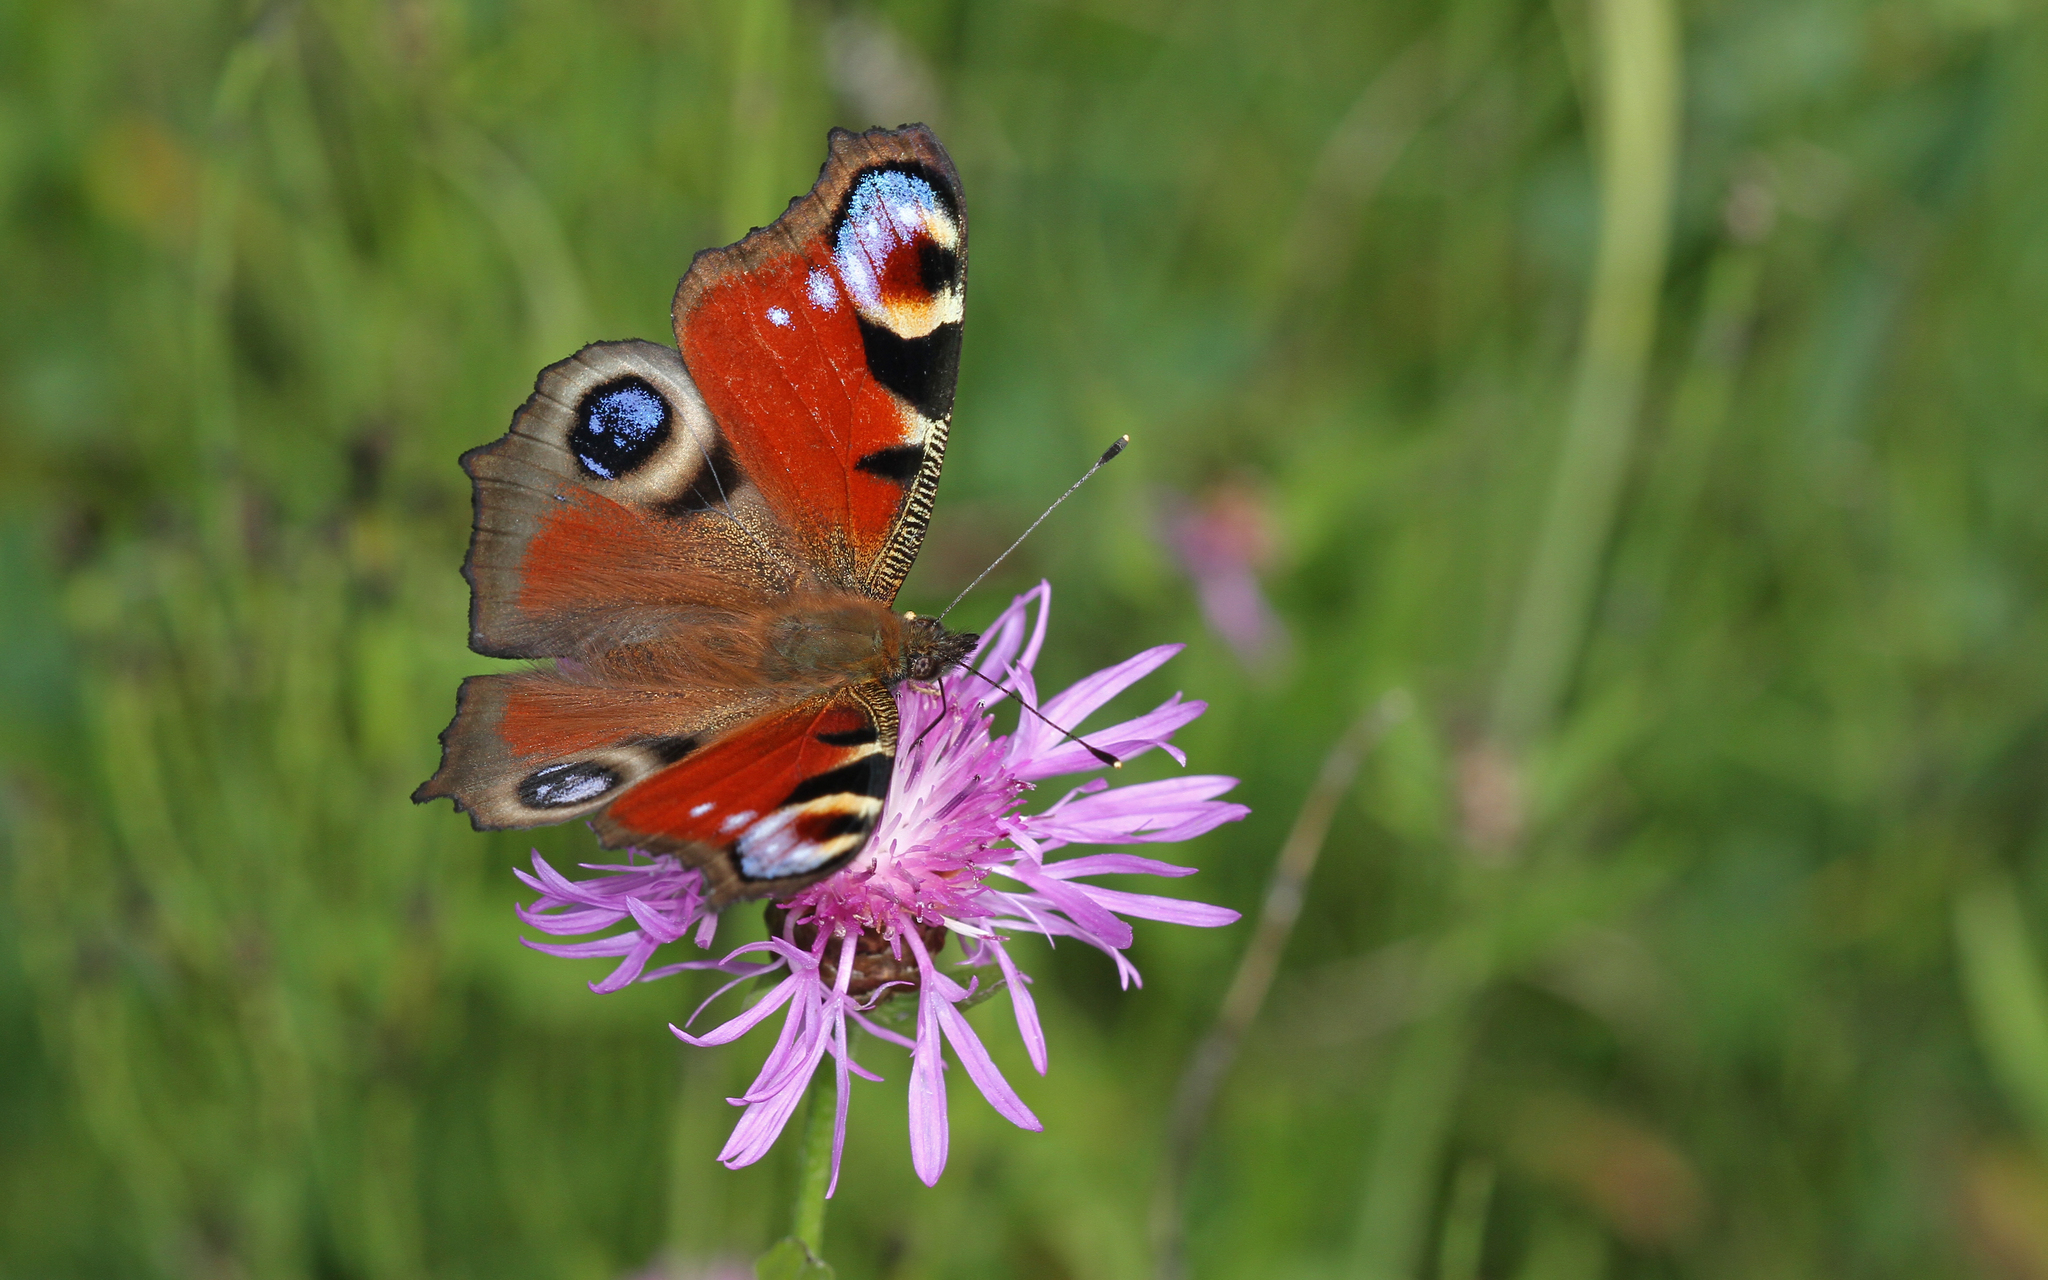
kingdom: Animalia
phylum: Arthropoda
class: Insecta
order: Lepidoptera
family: Nymphalidae
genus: Aglais
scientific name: Aglais io
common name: Peacock
